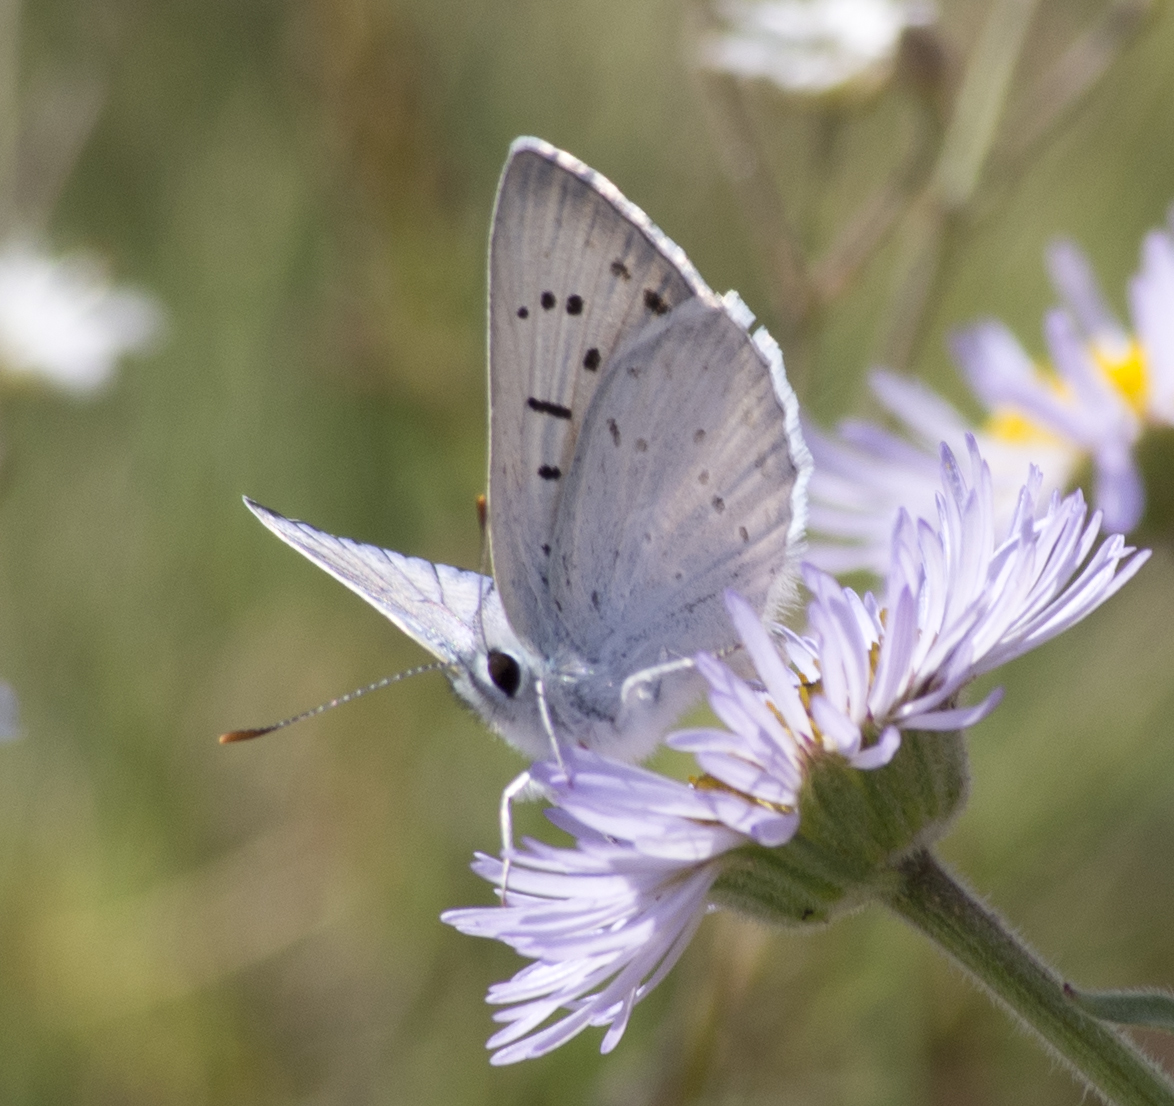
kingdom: Animalia
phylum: Arthropoda
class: Insecta
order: Lepidoptera
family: Lycaenidae
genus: Tharsalea
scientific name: Tharsalea heteronea
